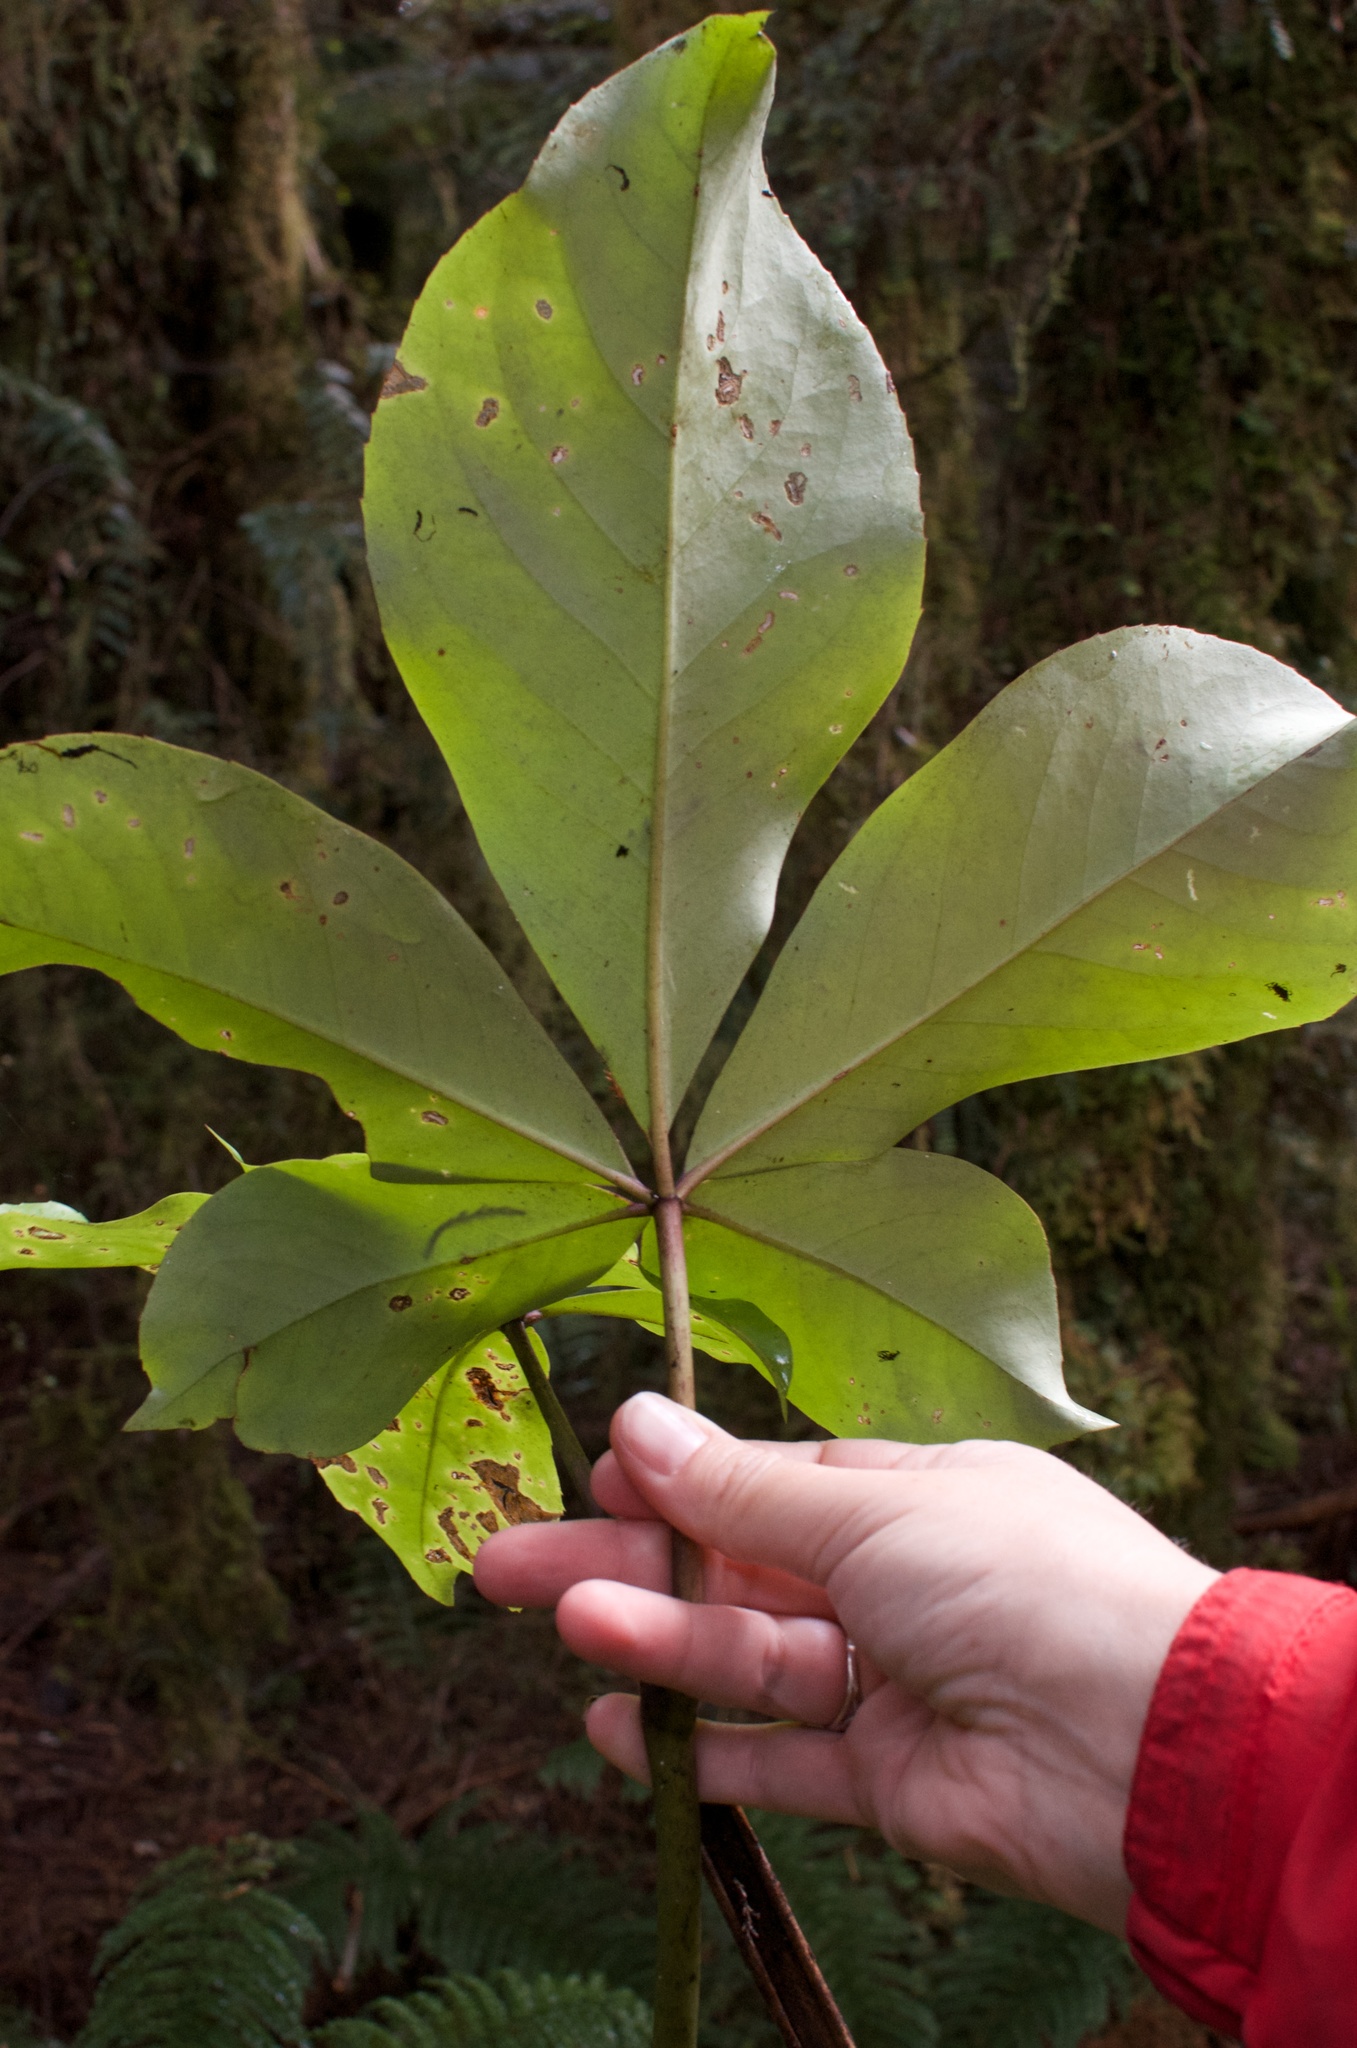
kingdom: Plantae
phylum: Tracheophyta
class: Magnoliopsida
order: Apiales
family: Araliaceae
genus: Neopanax
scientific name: Neopanax laetus
